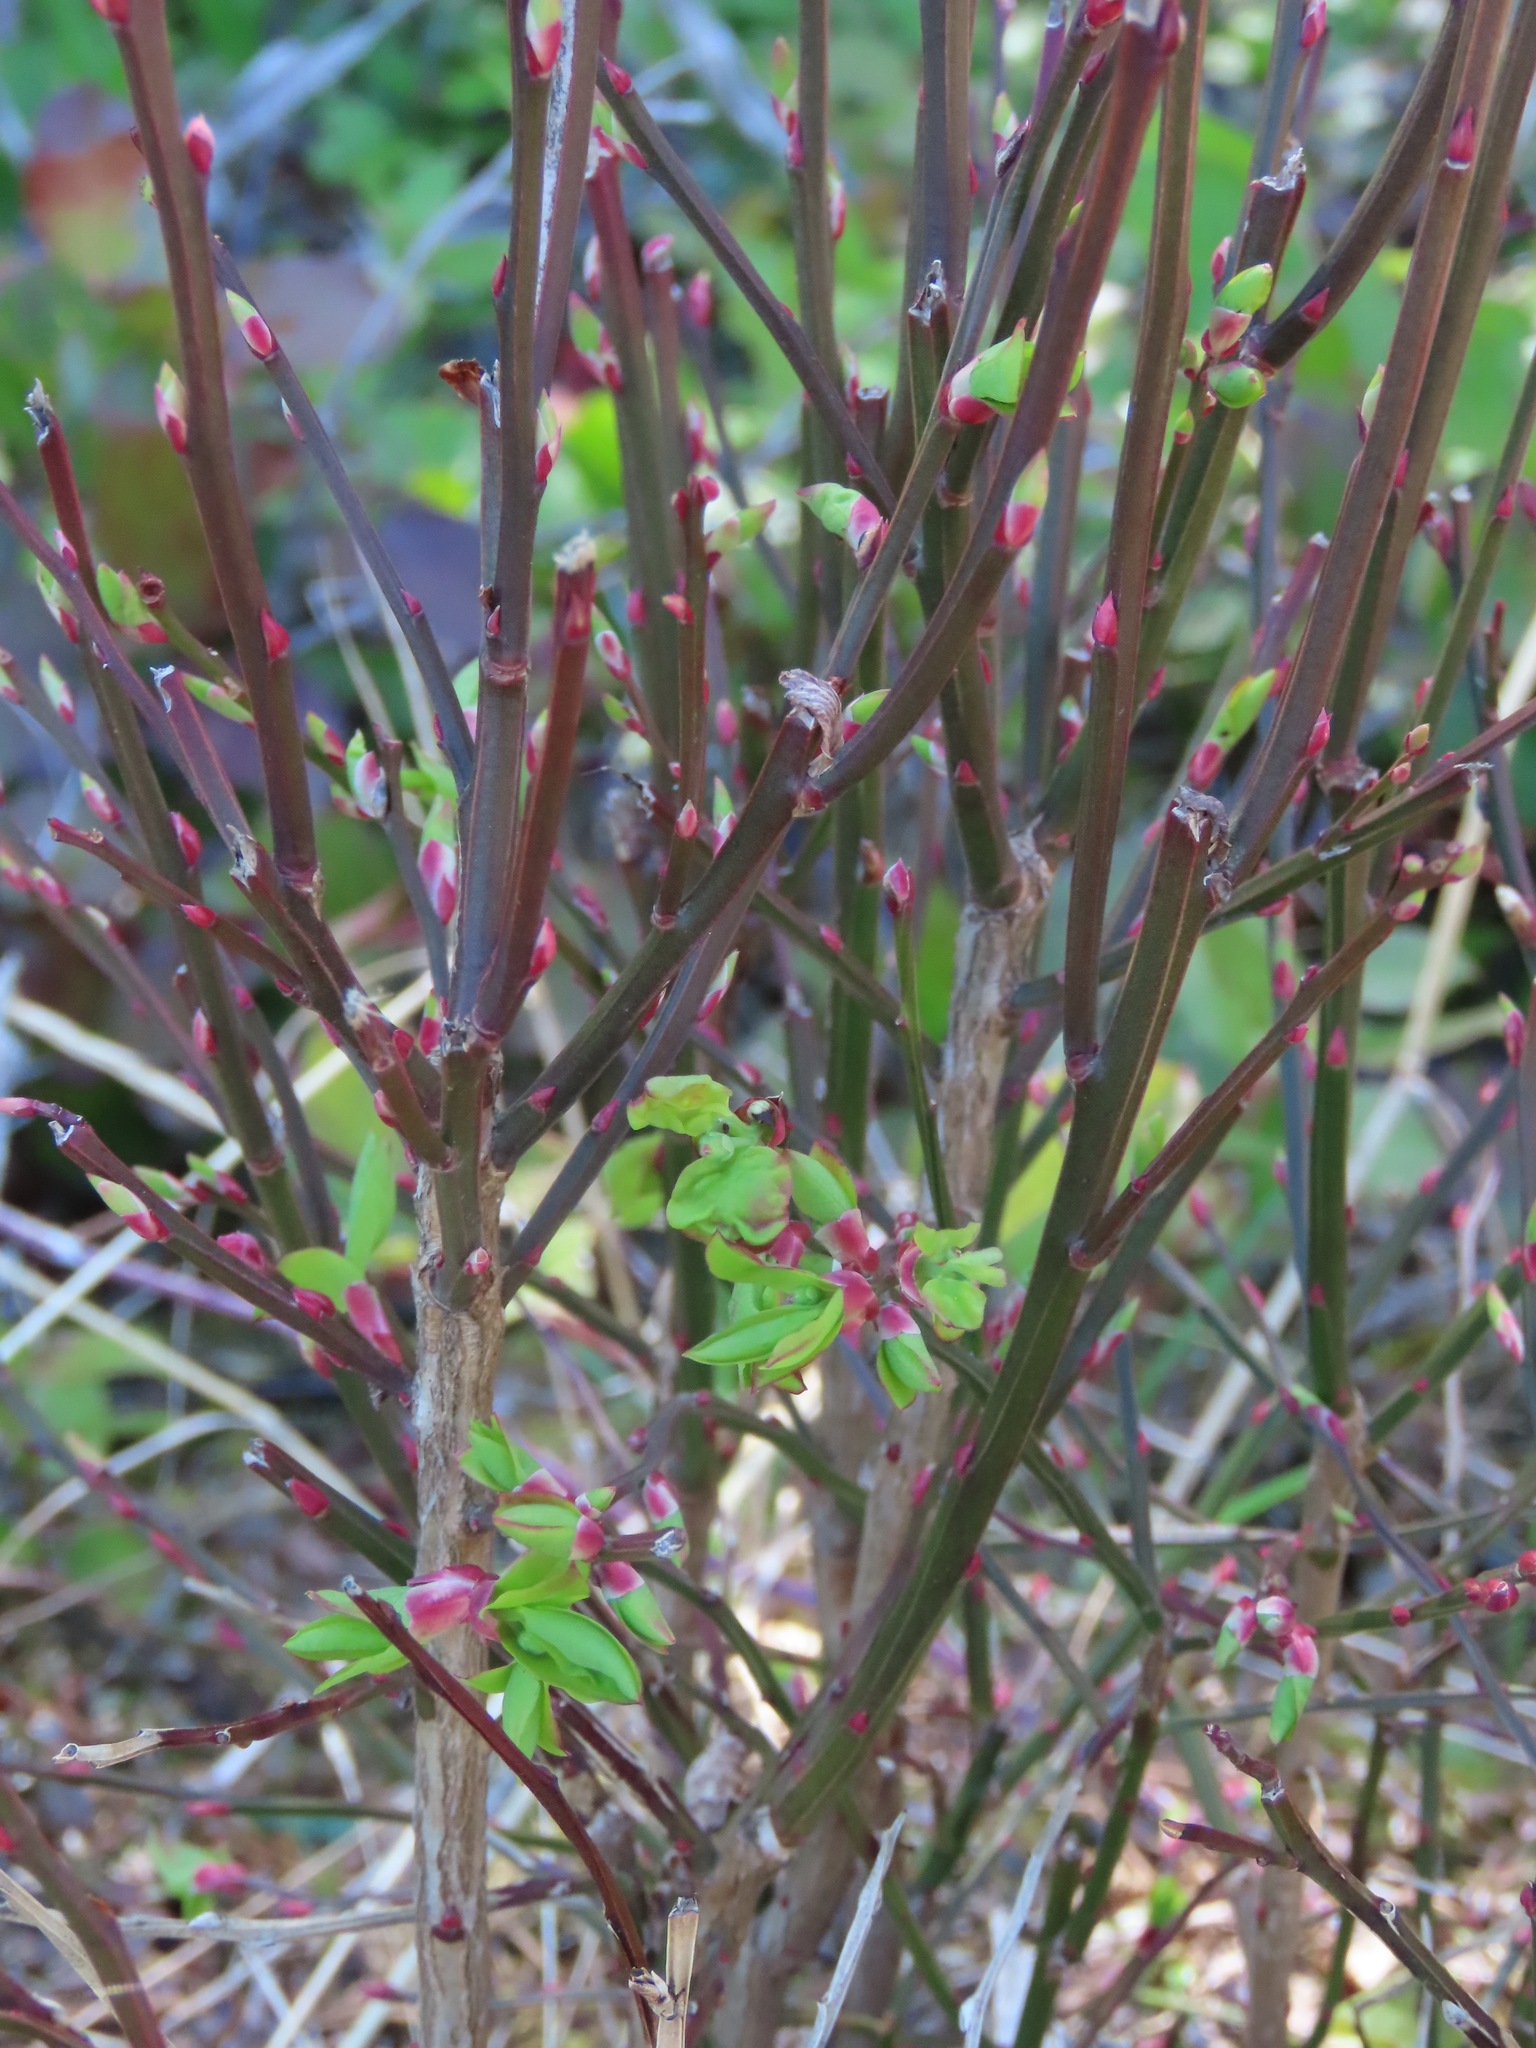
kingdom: Plantae
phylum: Tracheophyta
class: Magnoliopsida
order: Ericales
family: Ericaceae
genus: Vaccinium
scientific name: Vaccinium parvifolium
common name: Red-huckleberry
